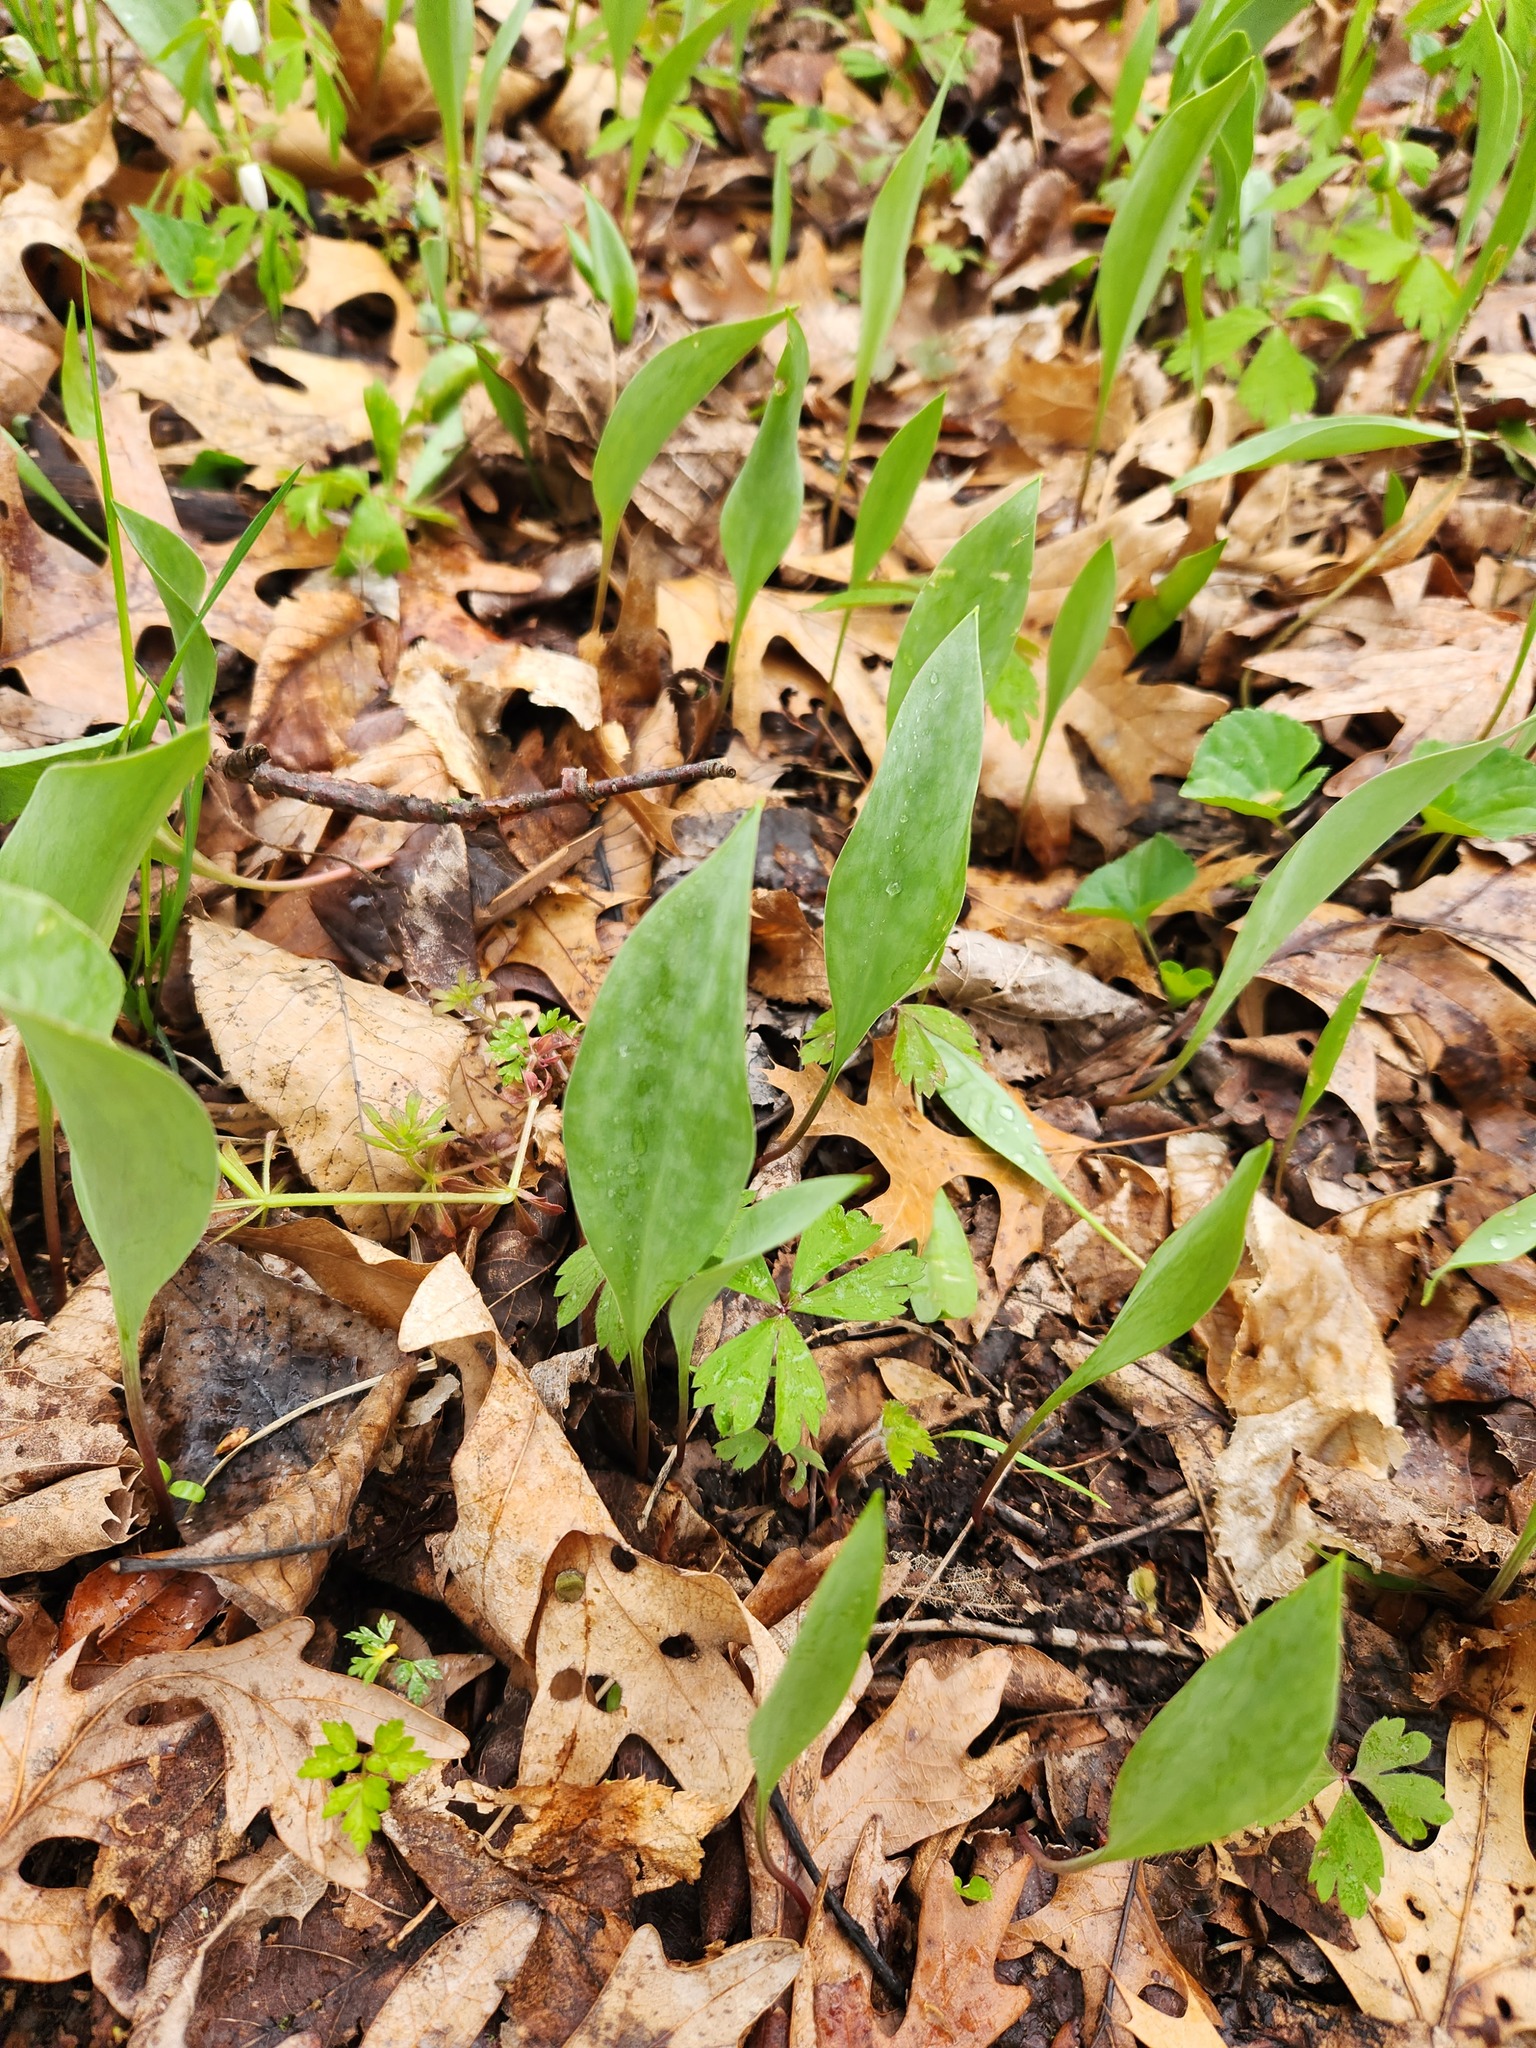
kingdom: Plantae
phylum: Tracheophyta
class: Liliopsida
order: Liliales
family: Liliaceae
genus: Erythronium
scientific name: Erythronium albidum
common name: White trout-lily
